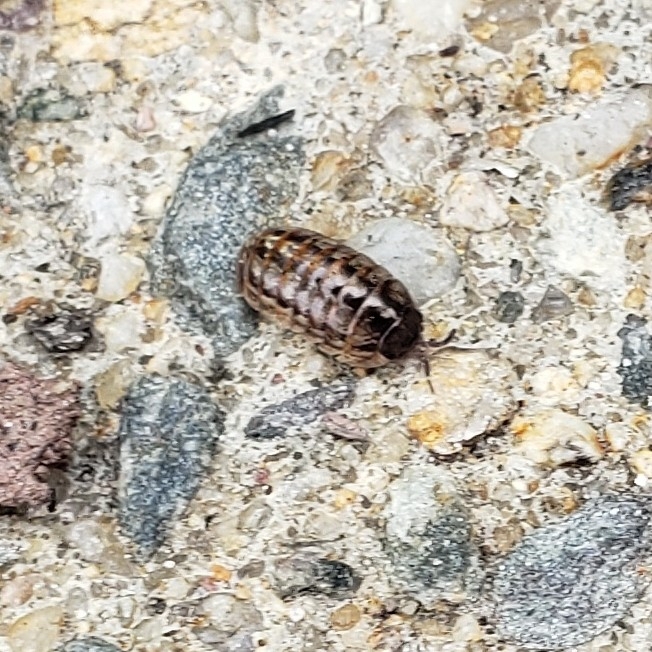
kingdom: Animalia
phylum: Arthropoda
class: Malacostraca
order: Isopoda
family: Armadillidiidae
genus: Armadillidium
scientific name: Armadillidium vulgare
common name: Common pill woodlouse
